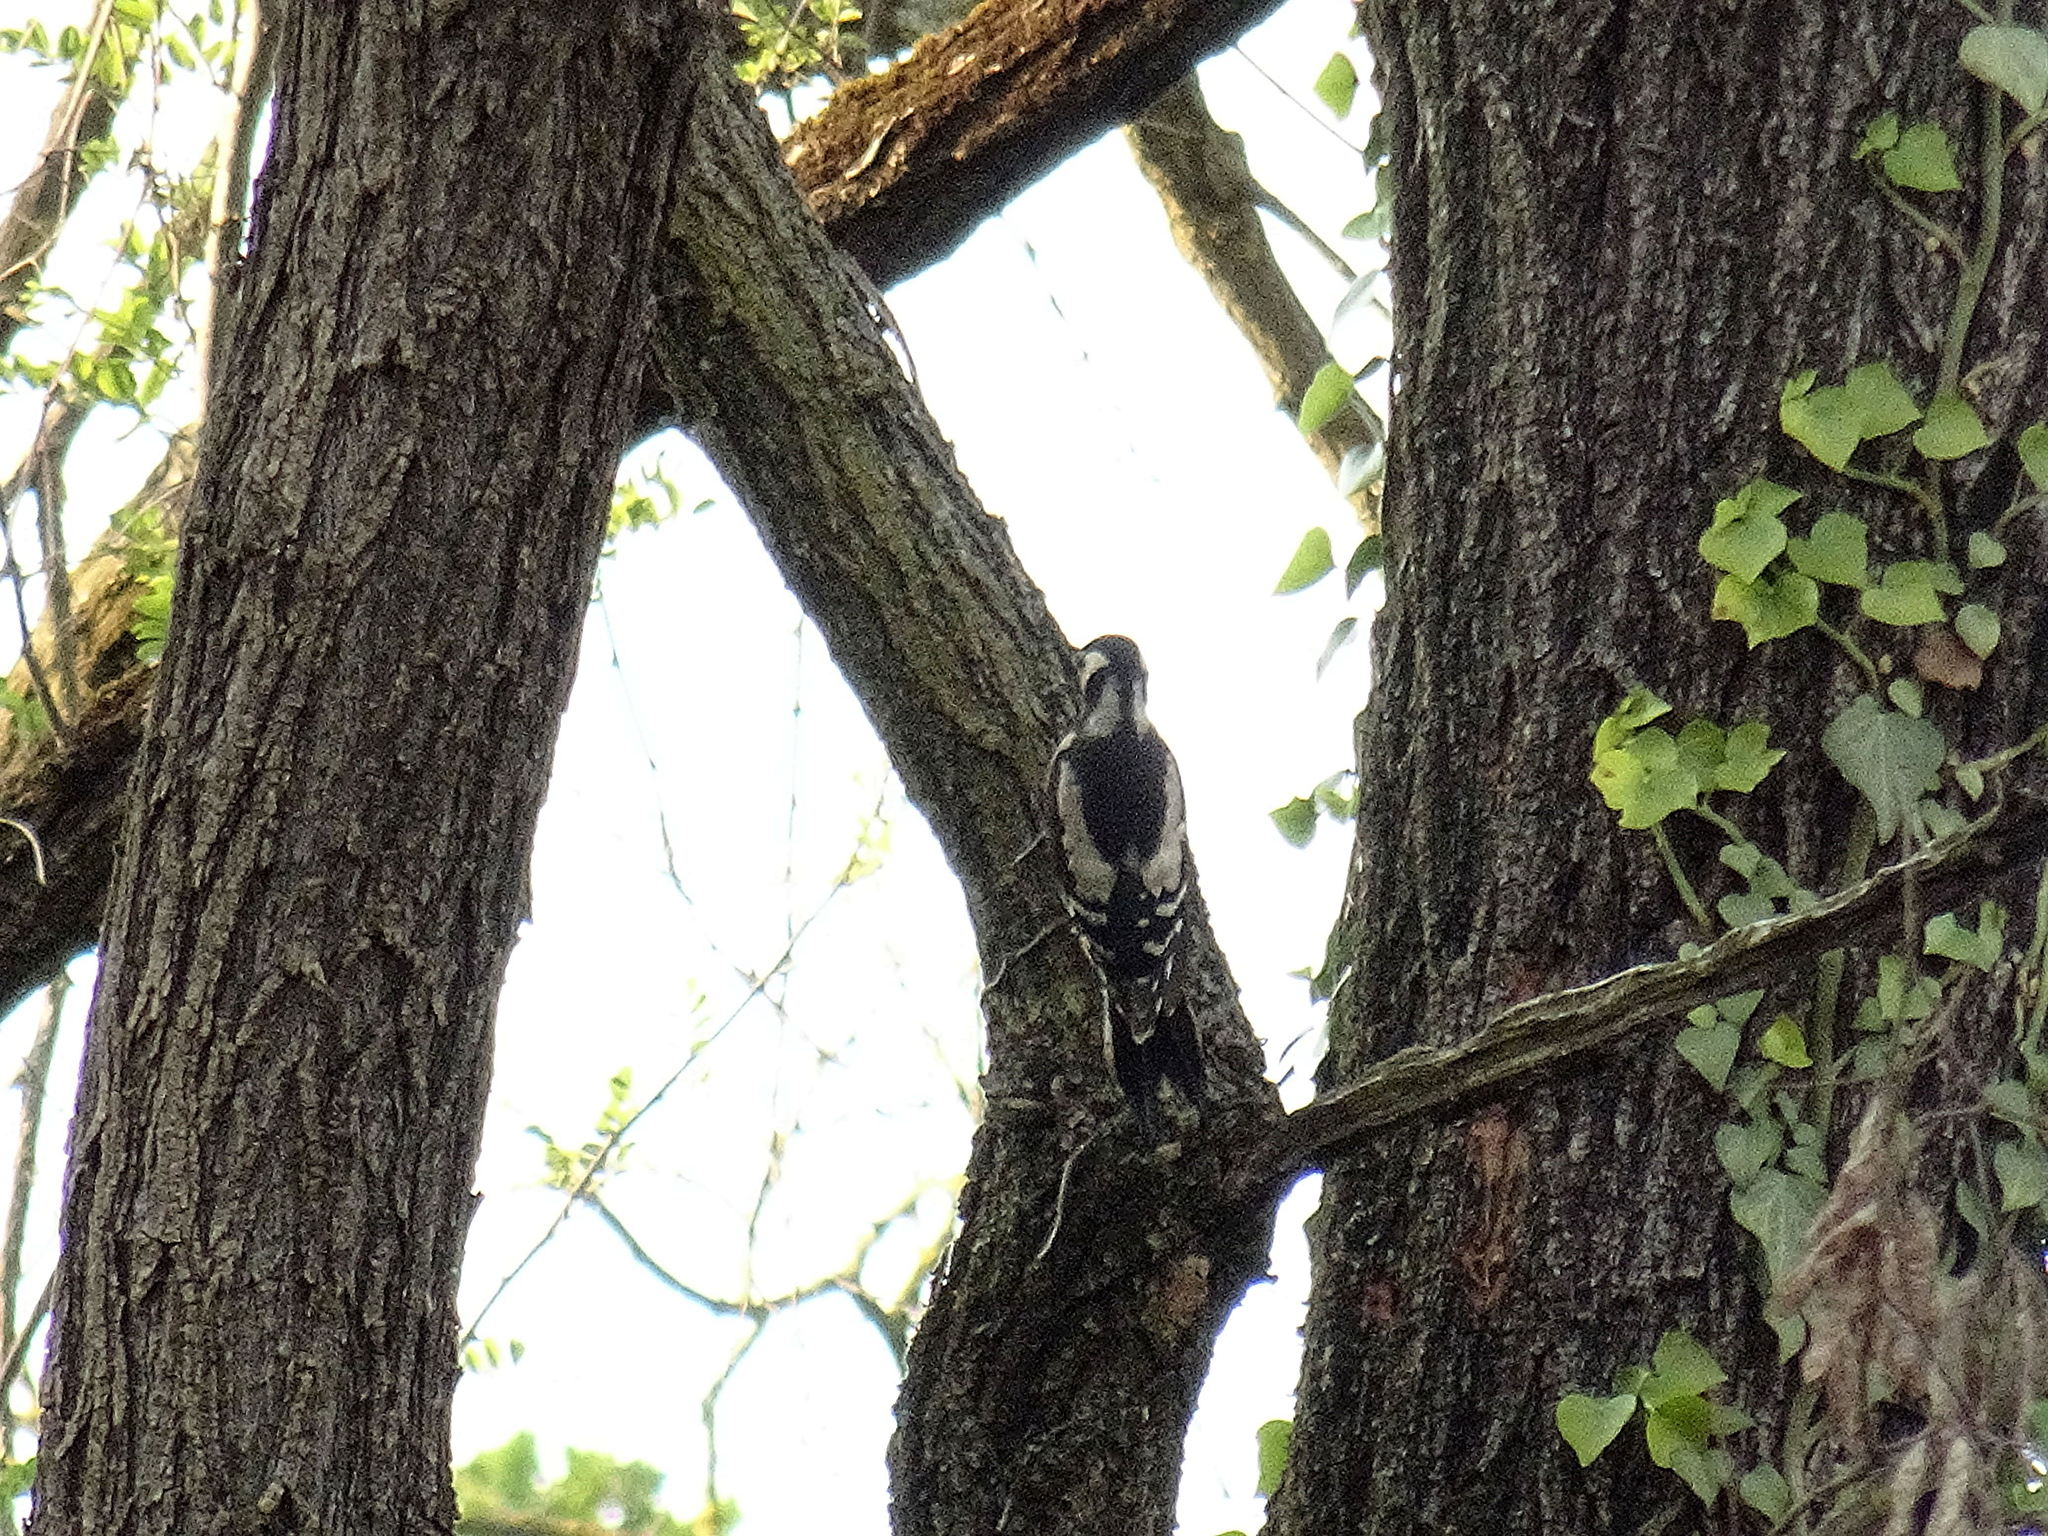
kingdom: Animalia
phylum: Chordata
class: Aves
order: Piciformes
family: Picidae
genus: Dendrocopos
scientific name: Dendrocopos major
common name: Great spotted woodpecker
